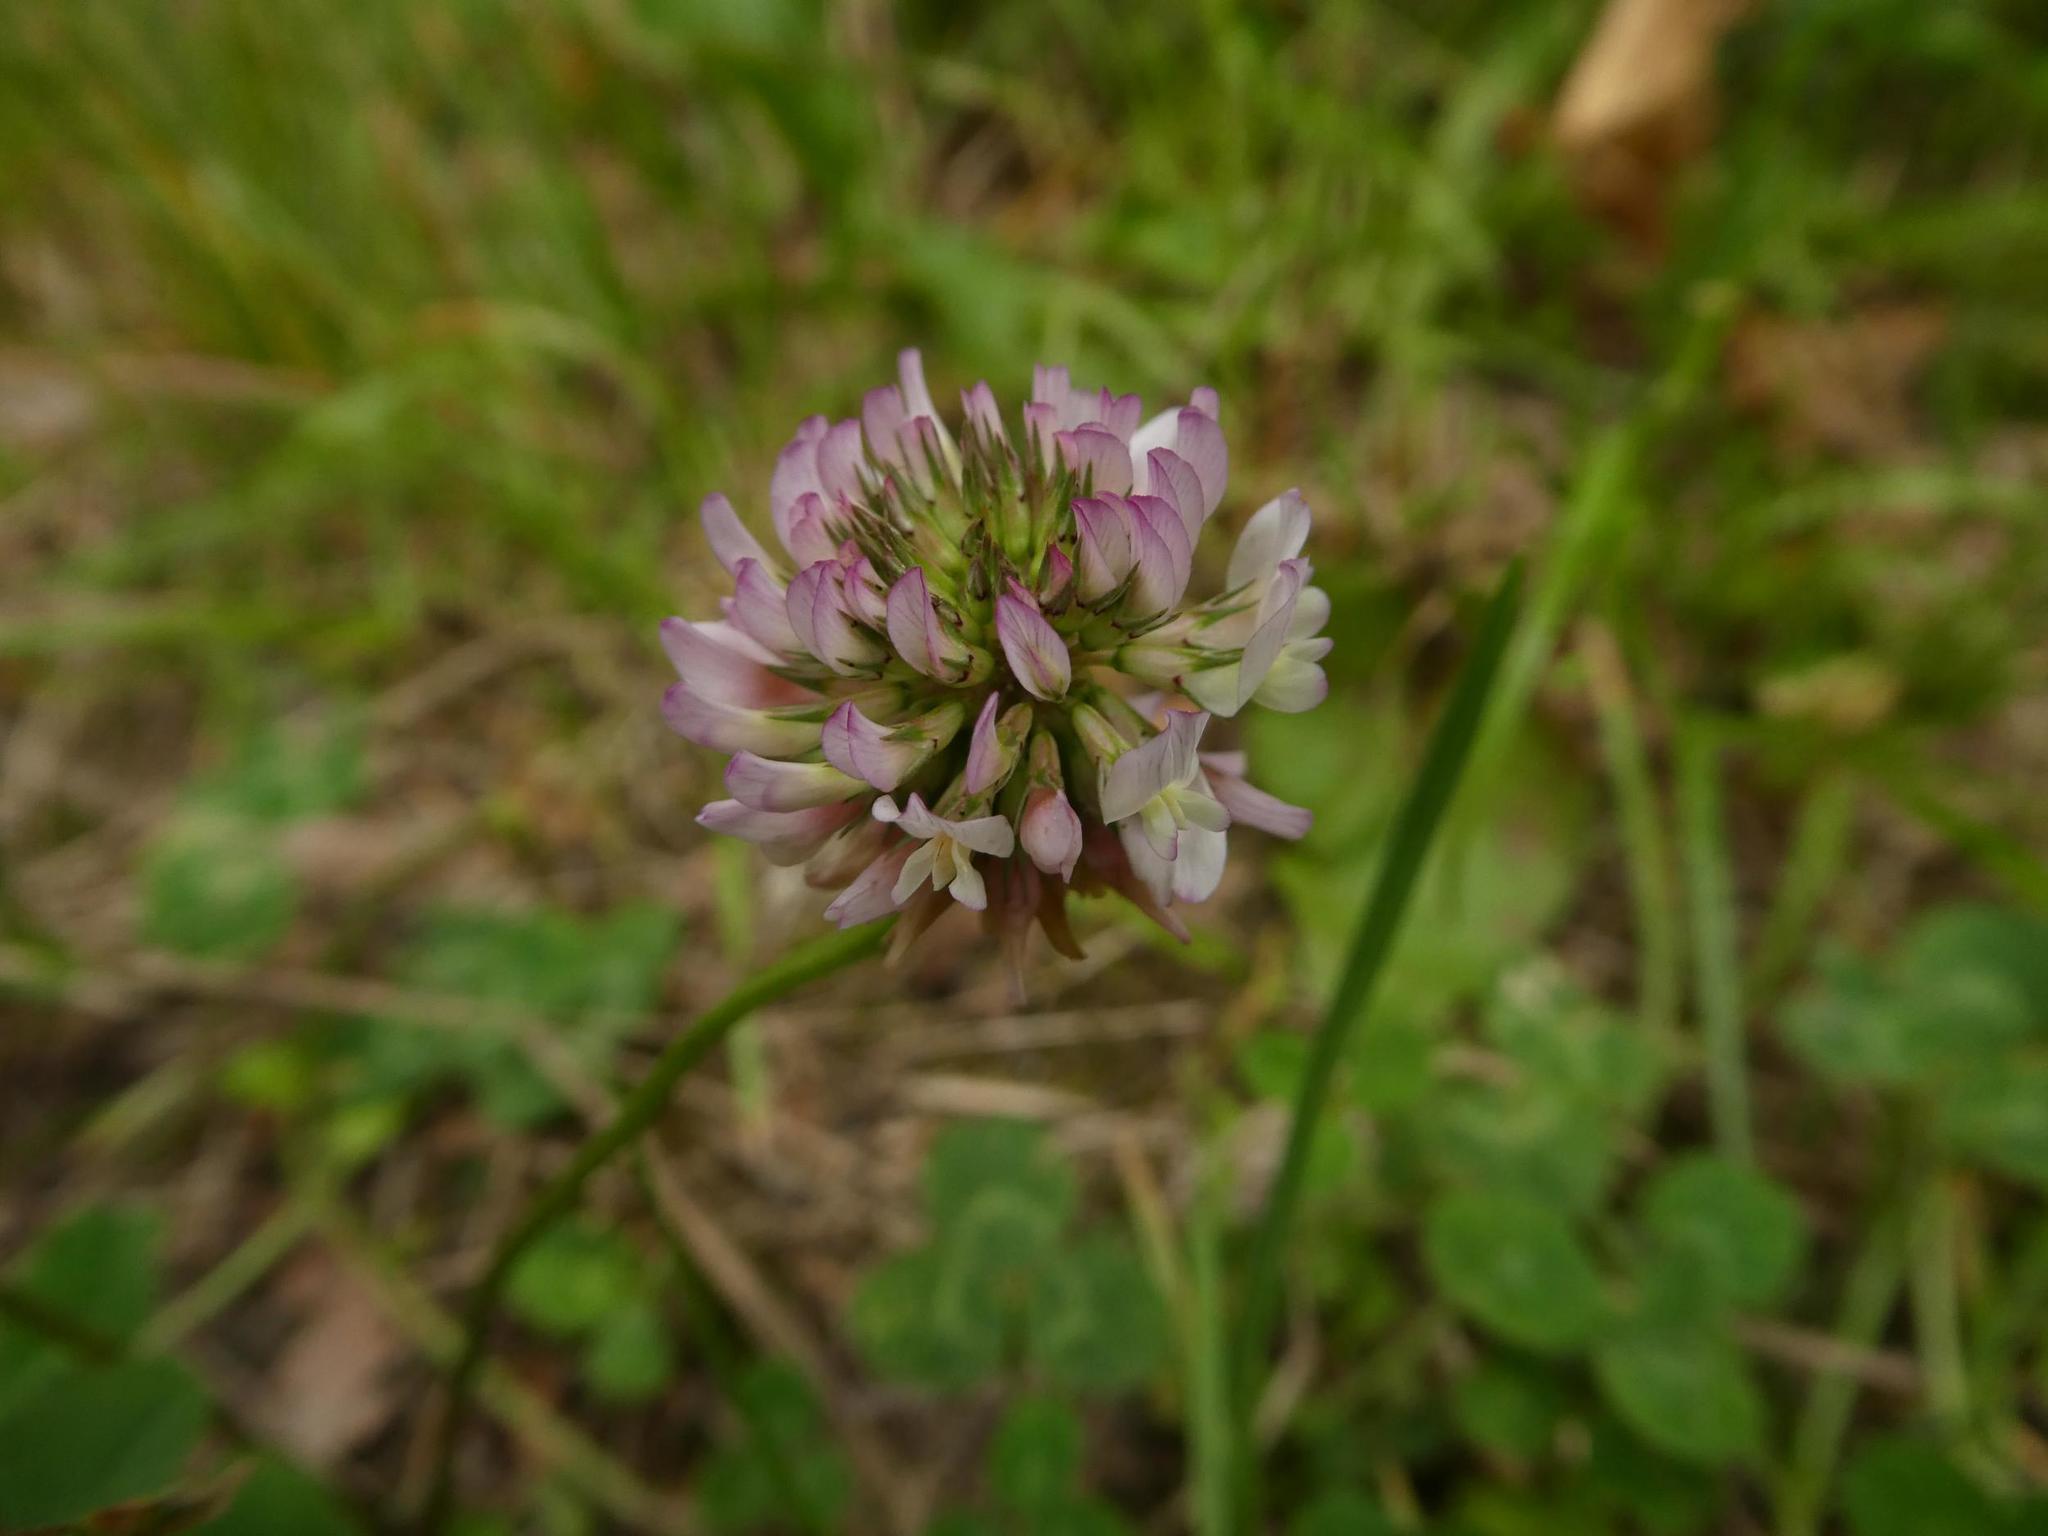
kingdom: Plantae
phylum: Tracheophyta
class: Magnoliopsida
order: Fabales
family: Fabaceae
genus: Trifolium
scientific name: Trifolium repens
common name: White clover
